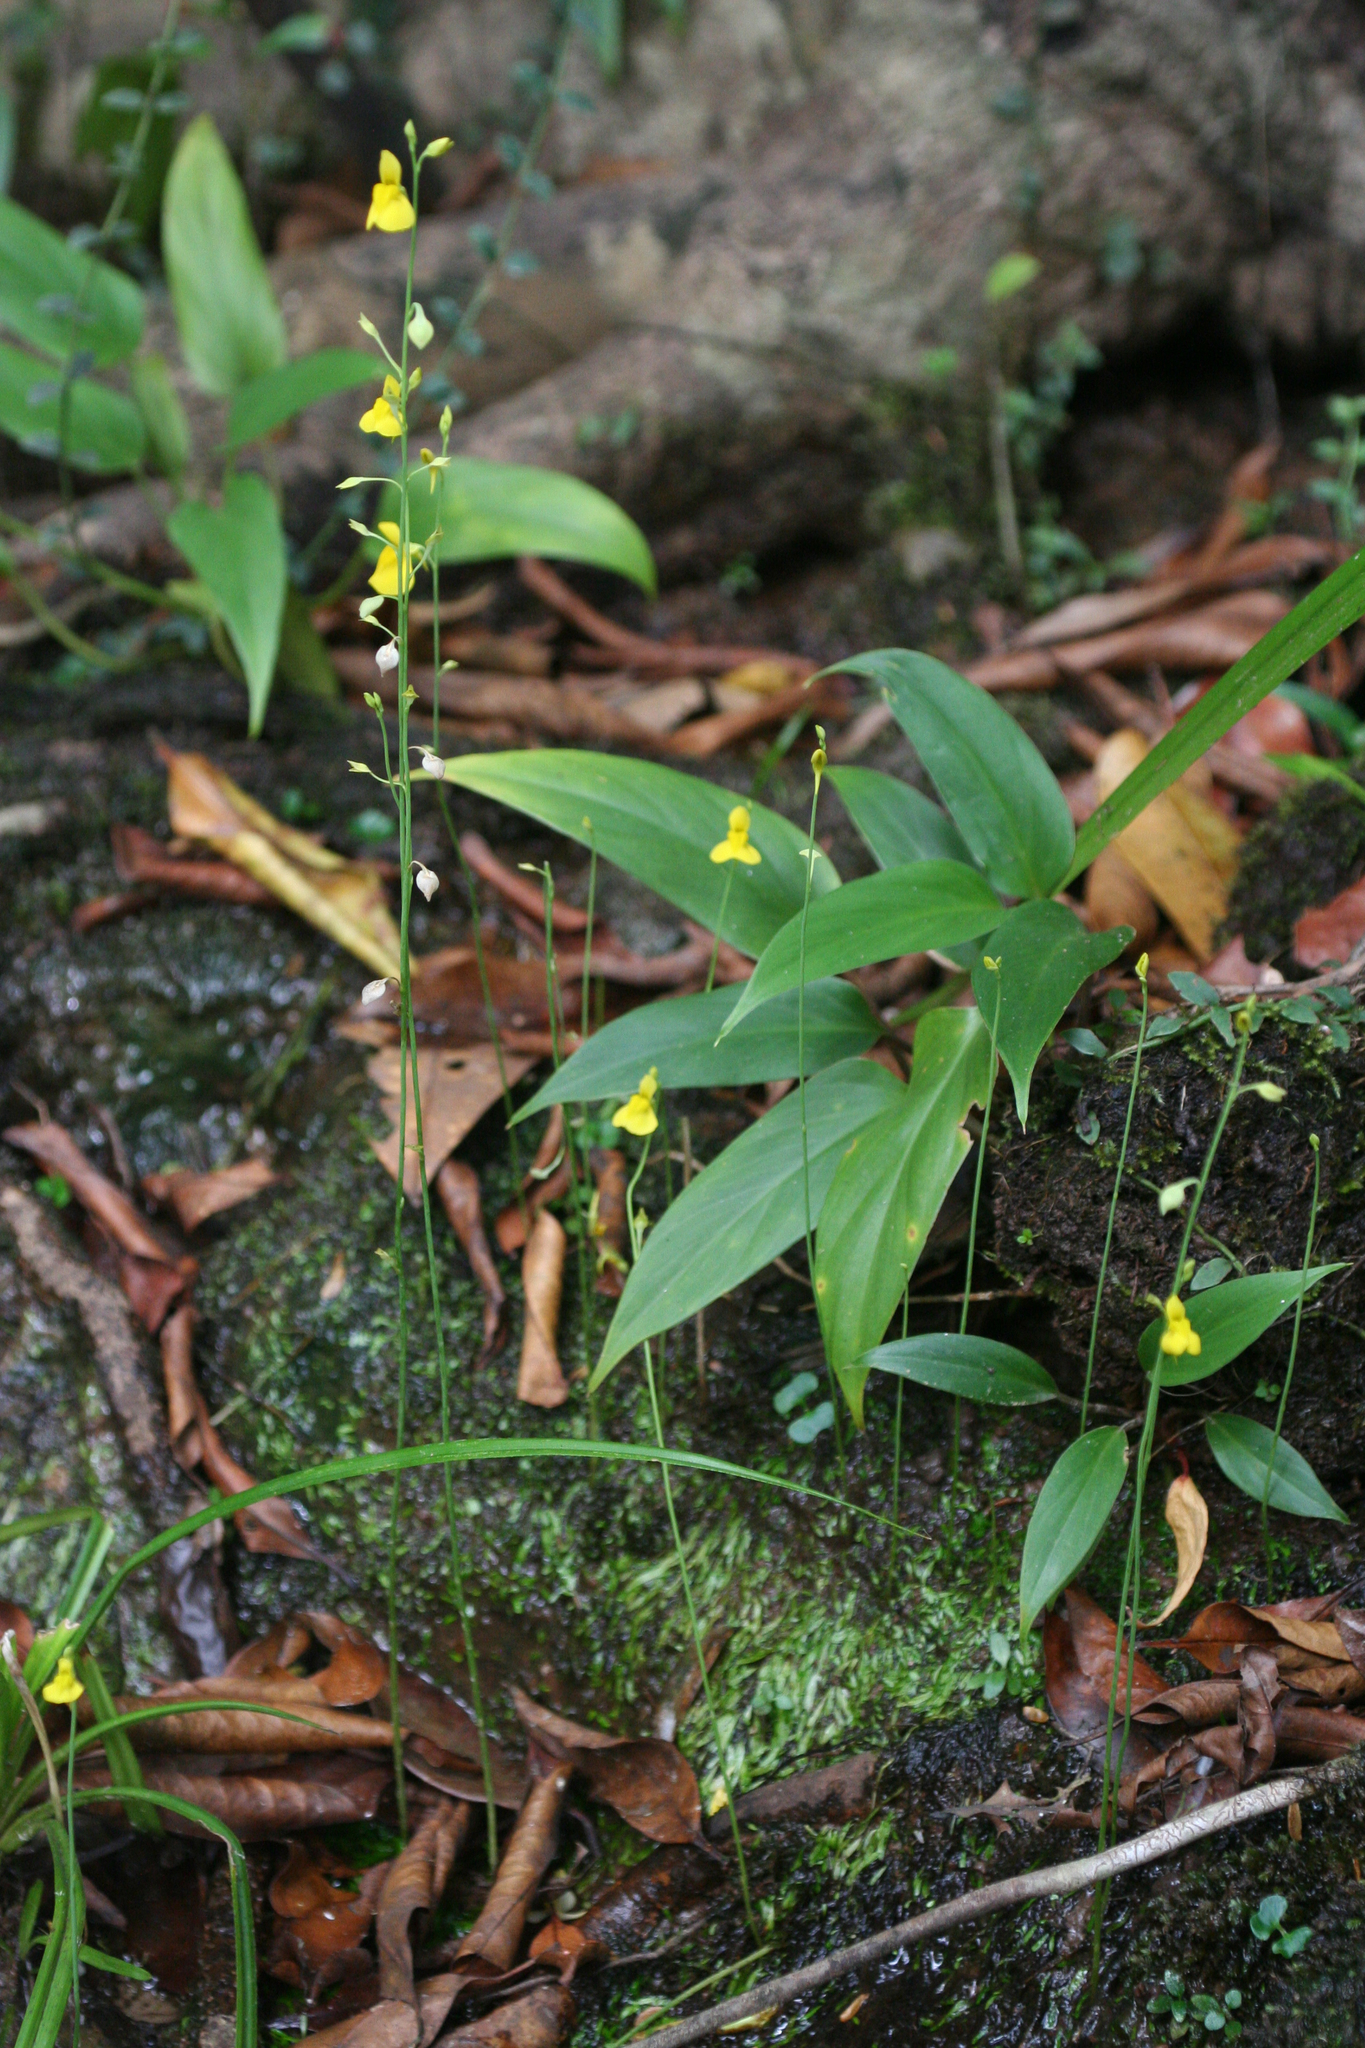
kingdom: Plantae
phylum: Tracheophyta
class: Magnoliopsida
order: Lamiales
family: Lentibulariaceae
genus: Utricularia
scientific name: Utricularia odorata
